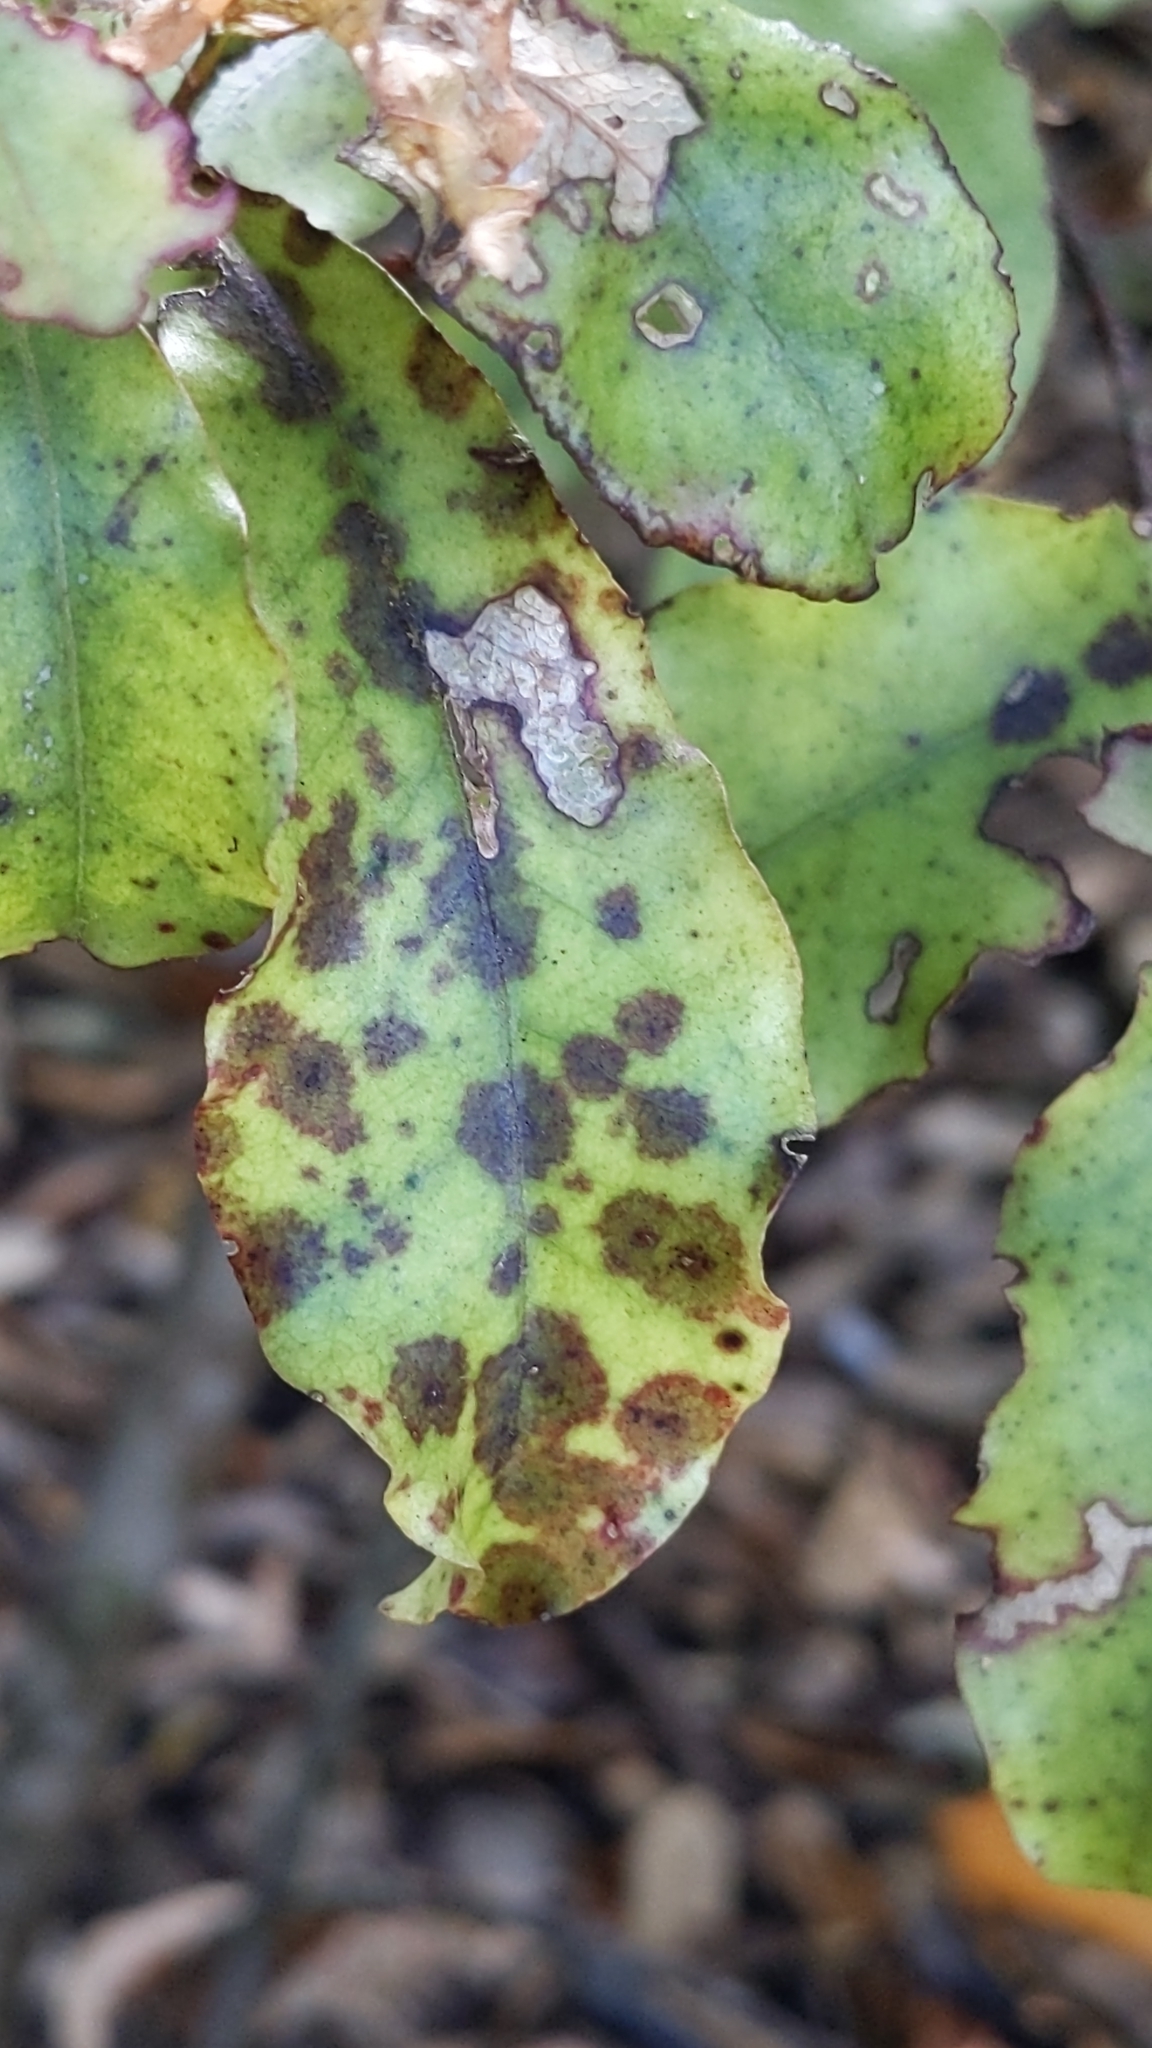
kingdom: Plantae
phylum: Tracheophyta
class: Magnoliopsida
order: Ericales
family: Primulaceae
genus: Myrsine
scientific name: Myrsine australis
